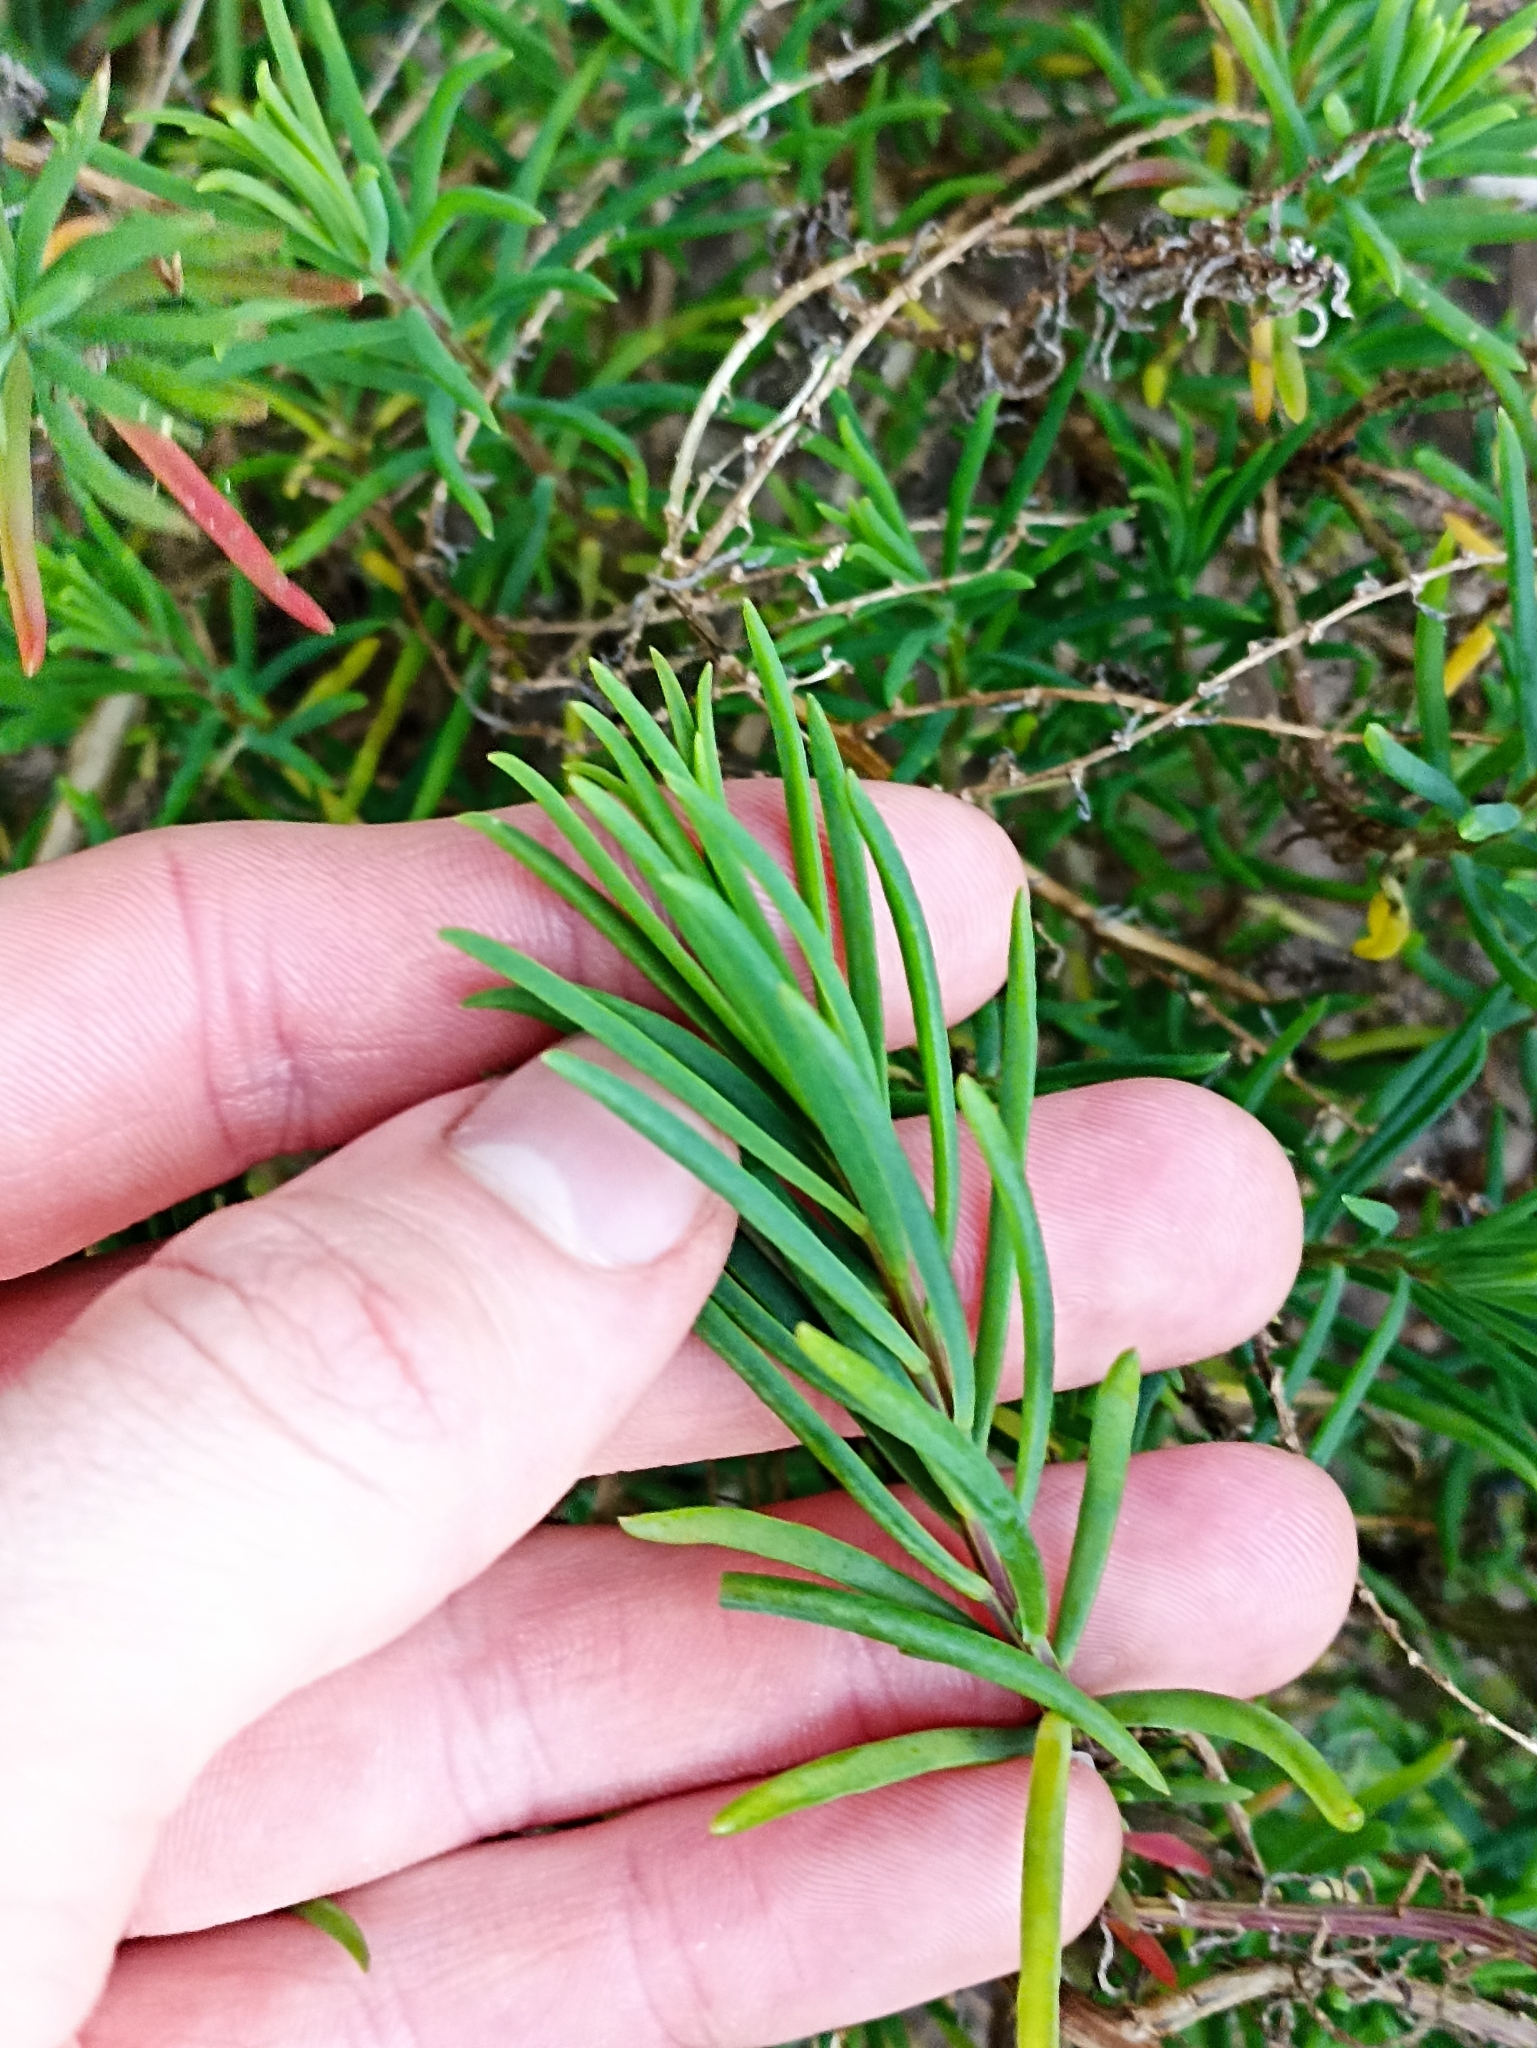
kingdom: Plantae
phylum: Tracheophyta
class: Magnoliopsida
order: Caryophyllales
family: Amaranthaceae
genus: Suaeda
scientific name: Suaeda australis
